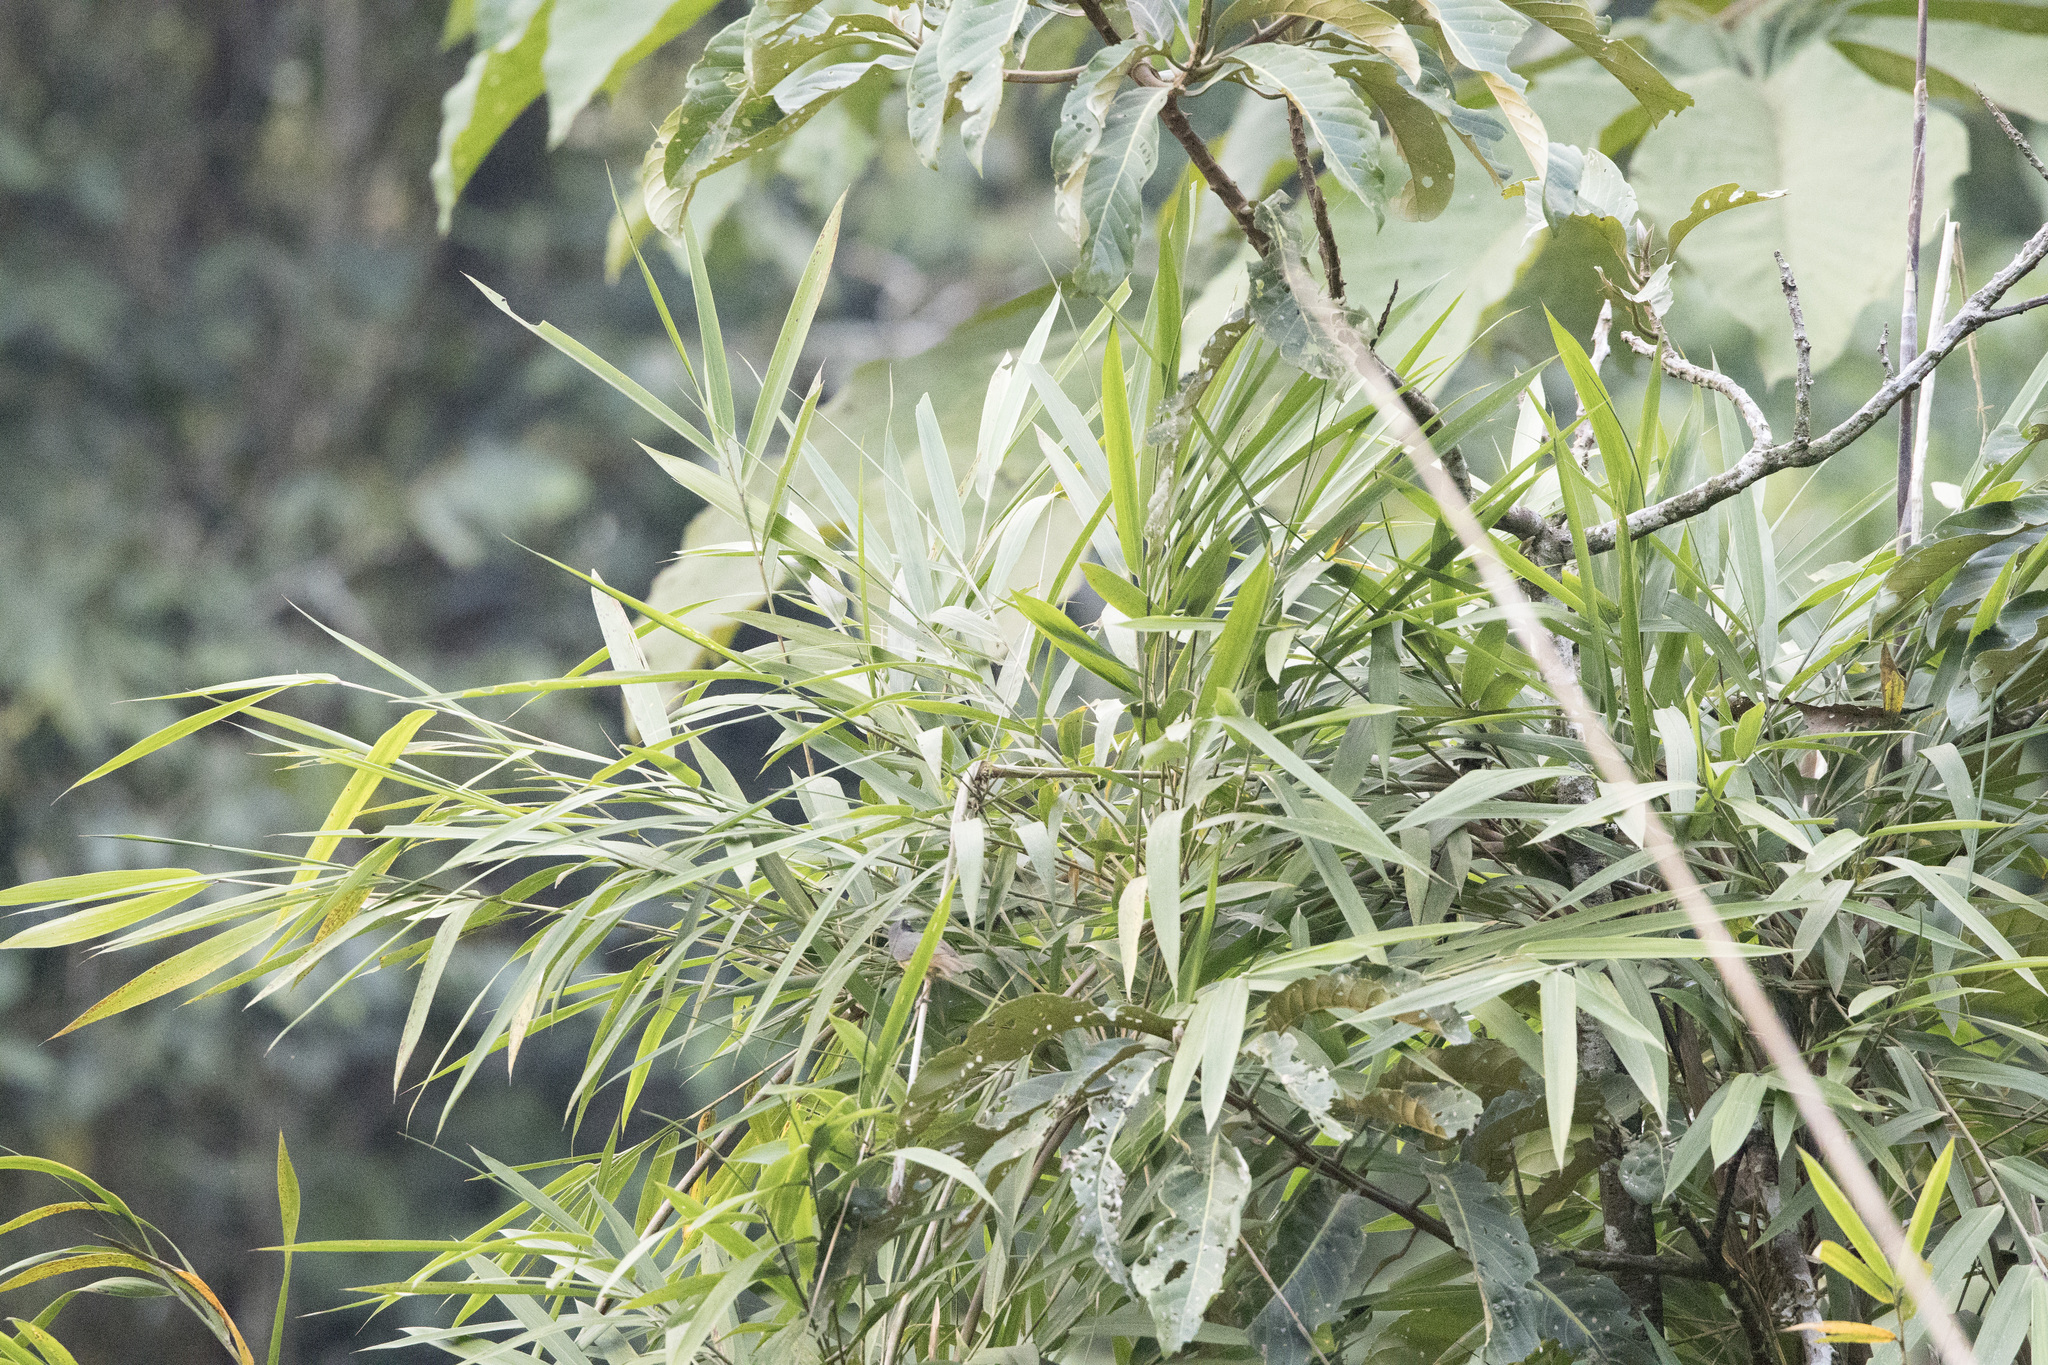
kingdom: Animalia
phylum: Chordata
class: Aves
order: Passeriformes
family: Thraupidae
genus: Sphenopsis
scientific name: Sphenopsis melanotis
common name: Black-eared hemispingus
